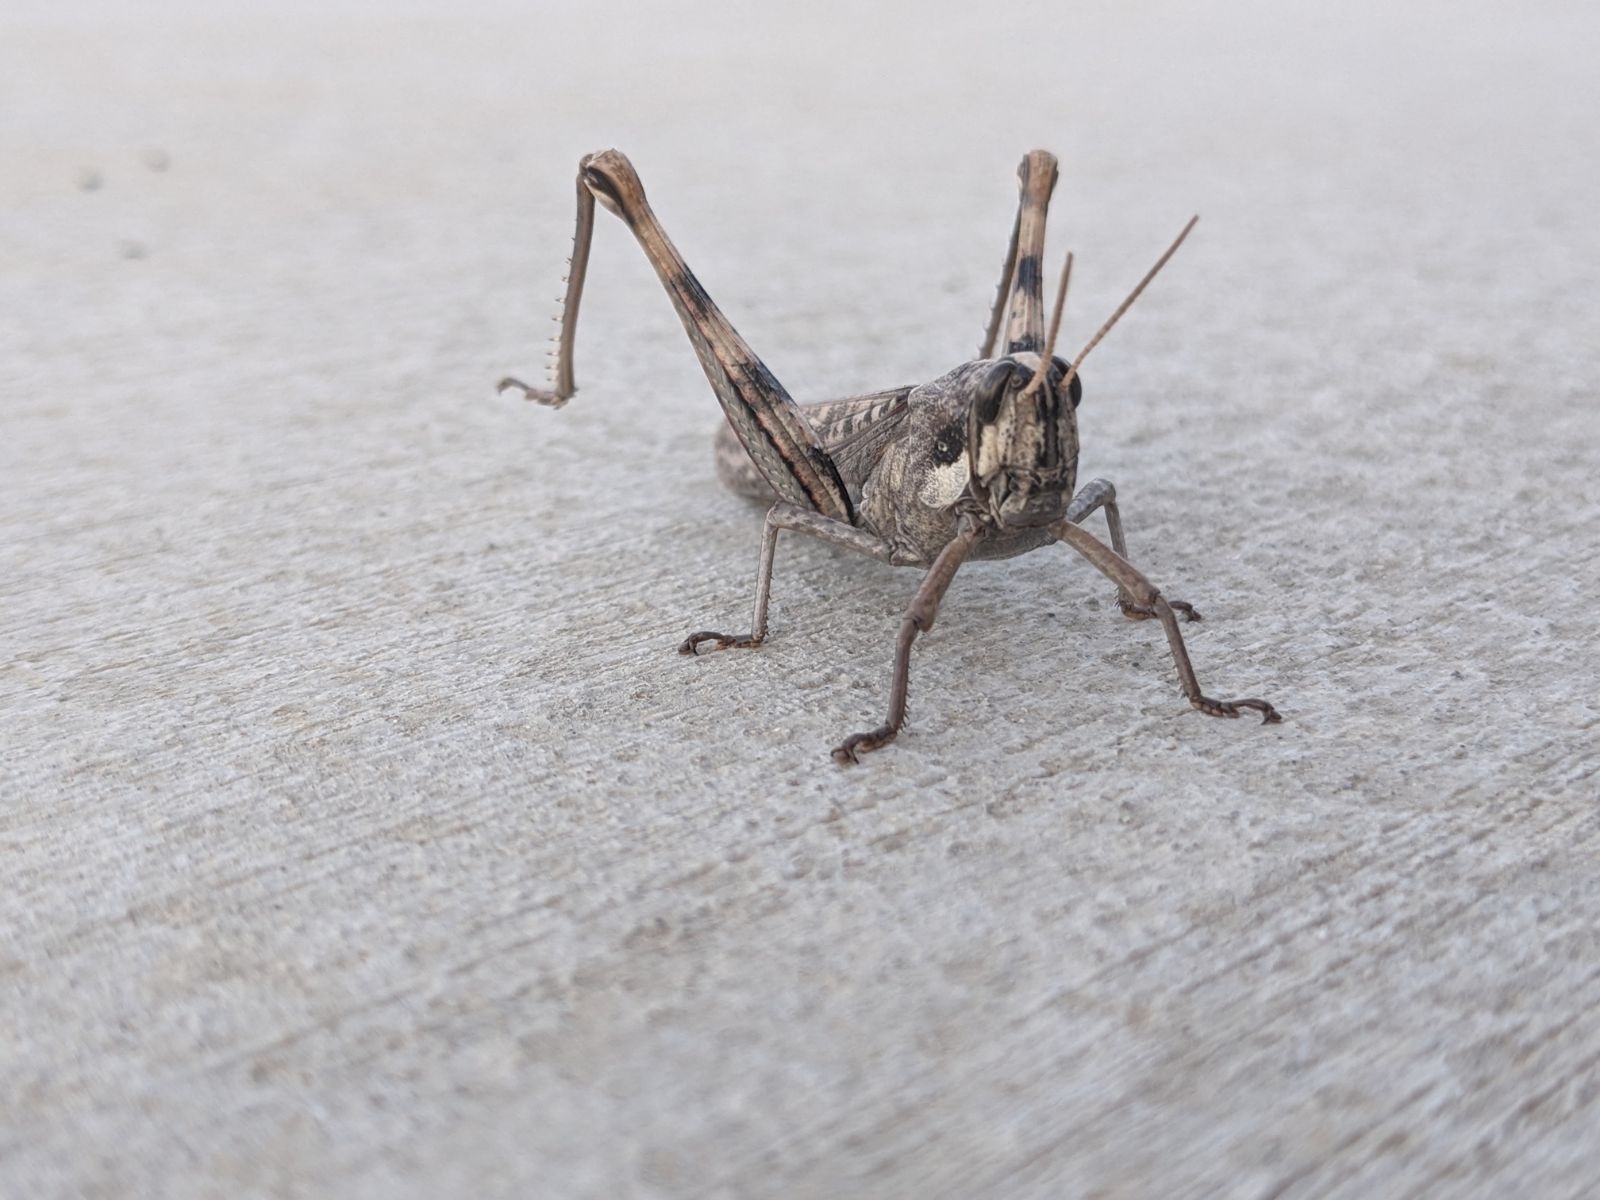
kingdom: Animalia
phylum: Arthropoda
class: Insecta
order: Orthoptera
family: Acrididae
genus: Schistocerca
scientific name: Schistocerca nitens
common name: Vagrant grasshopper
